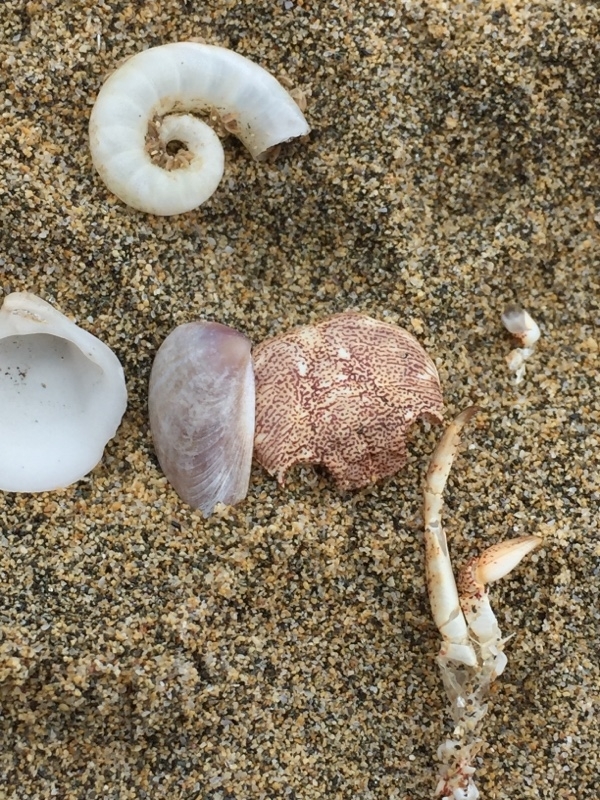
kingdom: Animalia
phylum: Mollusca
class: Cephalopoda
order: Spirulida
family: Spirulidae
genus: Spirula
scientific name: Spirula spirula
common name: Ram's horn squid
